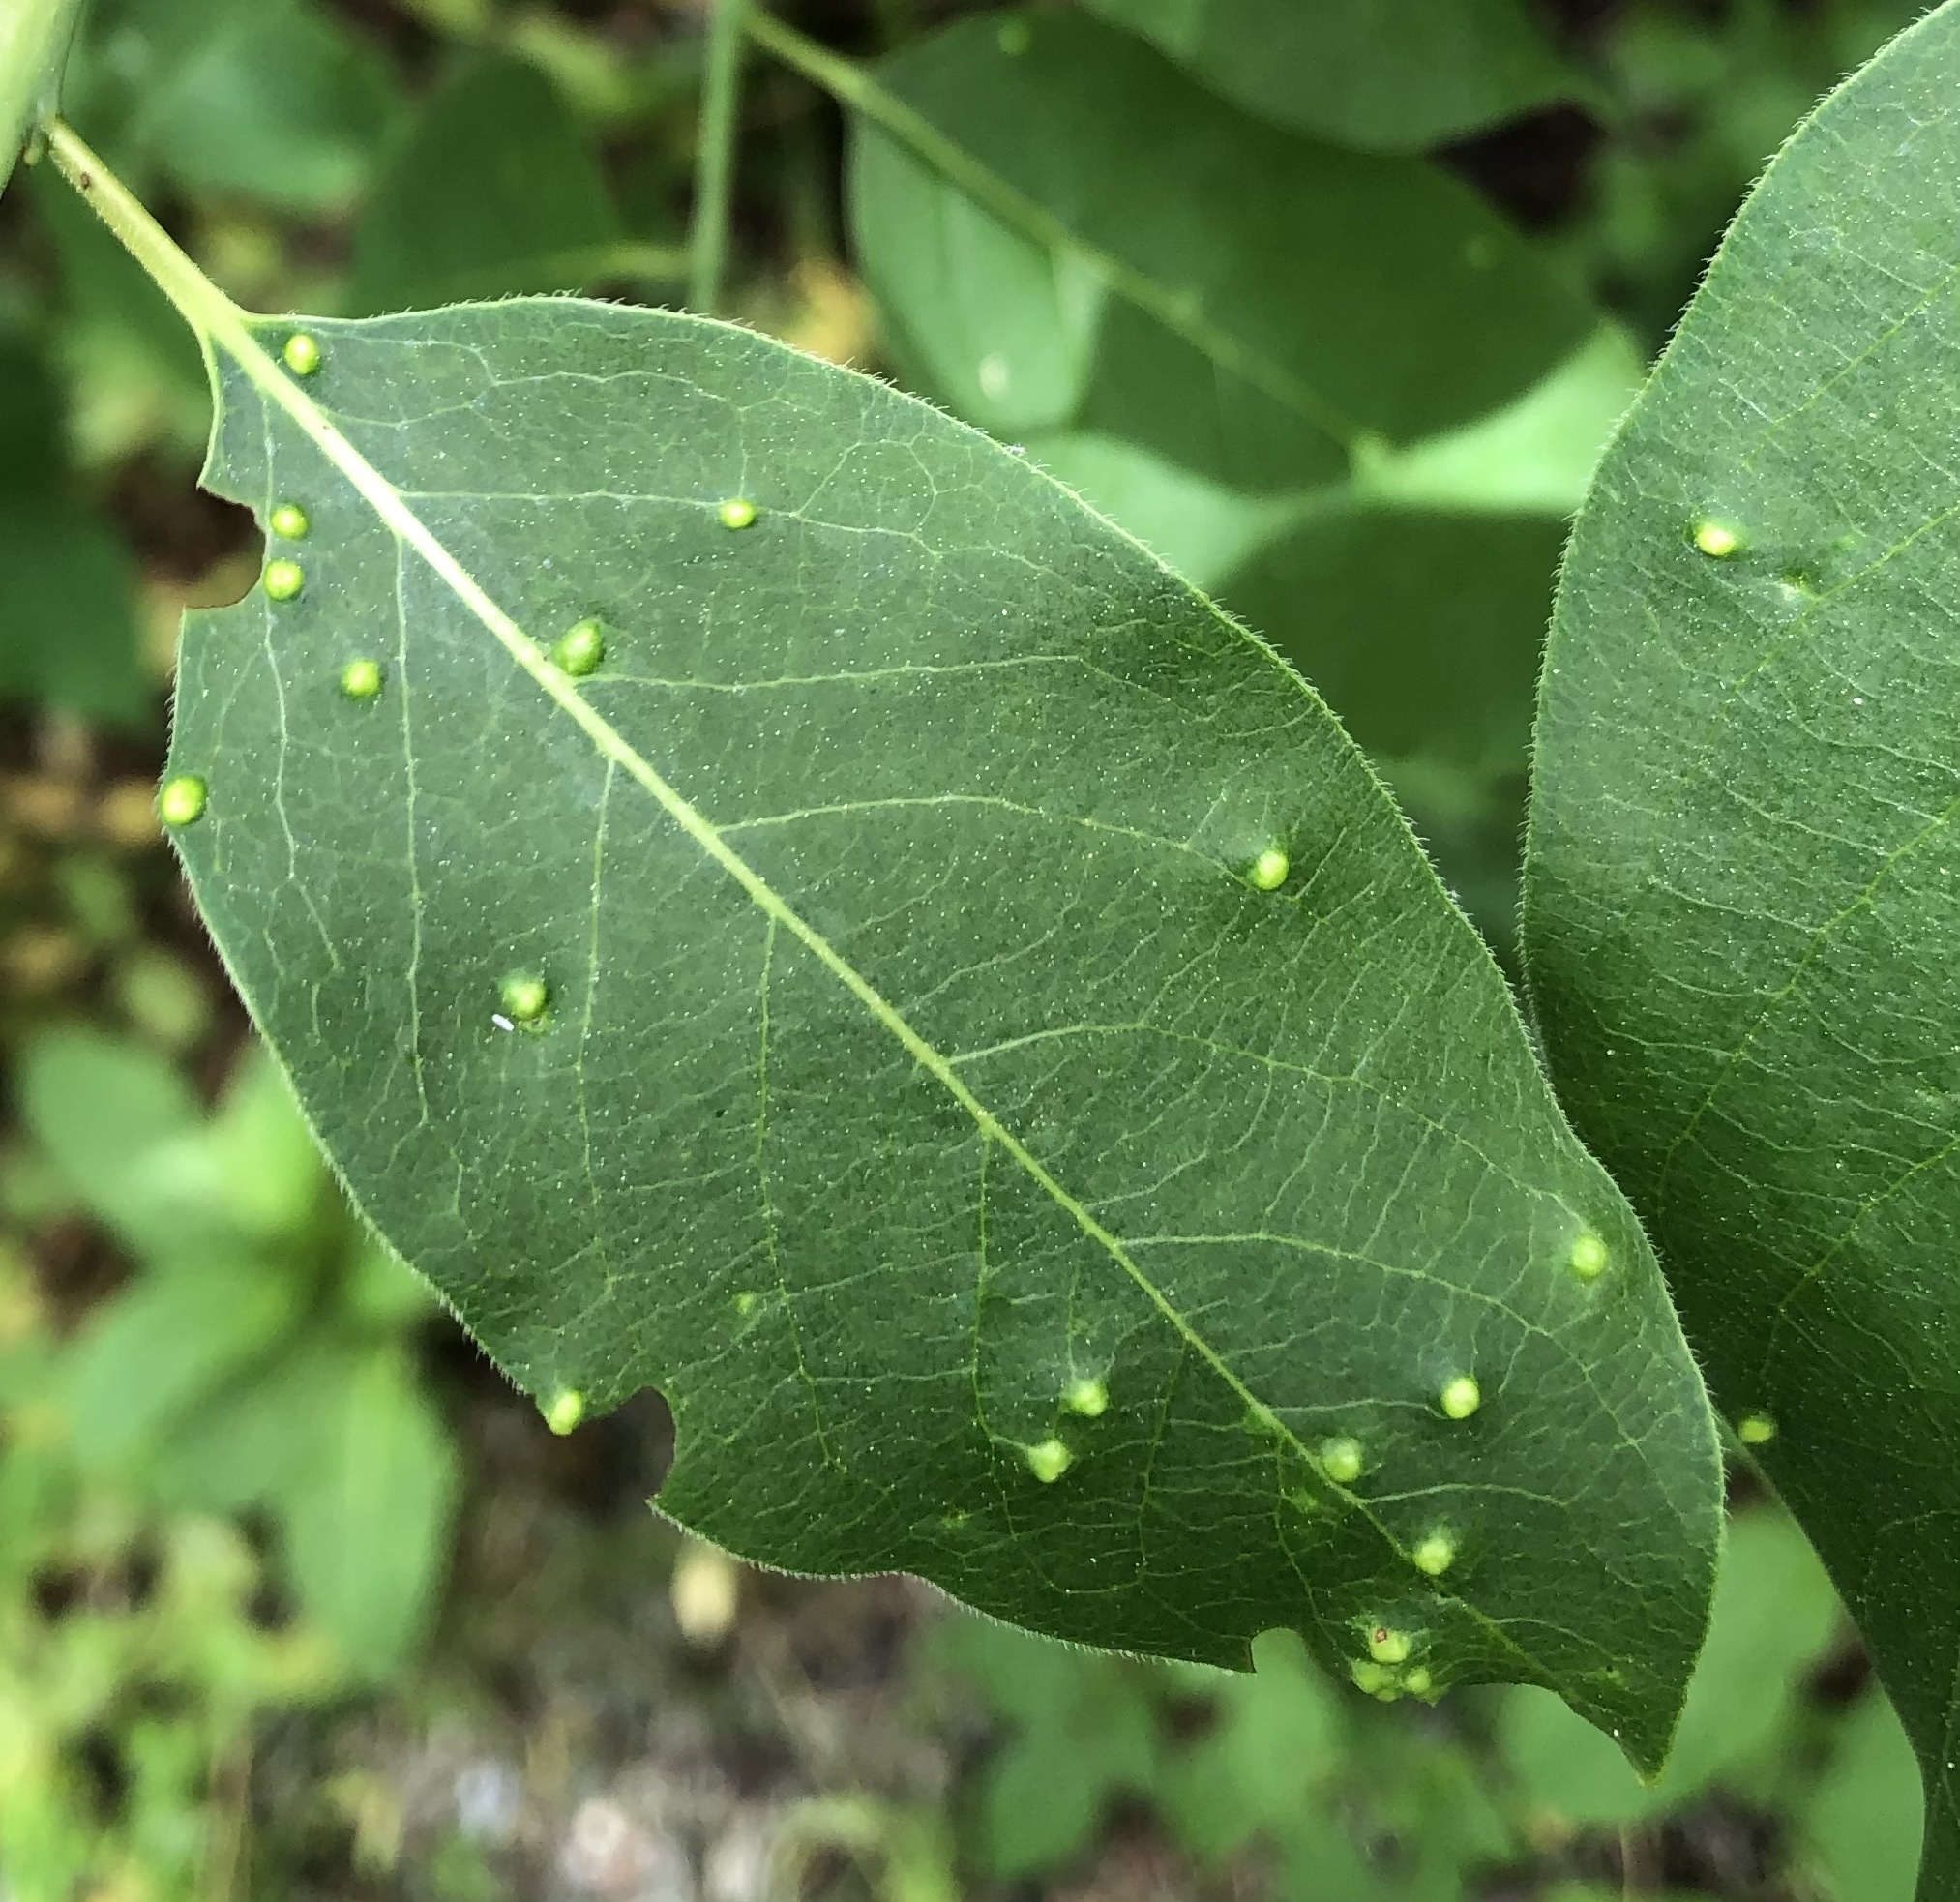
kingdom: Animalia
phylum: Arthropoda
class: Arachnida
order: Trombidiformes
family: Eriophyidae
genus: Aceria
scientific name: Aceria
